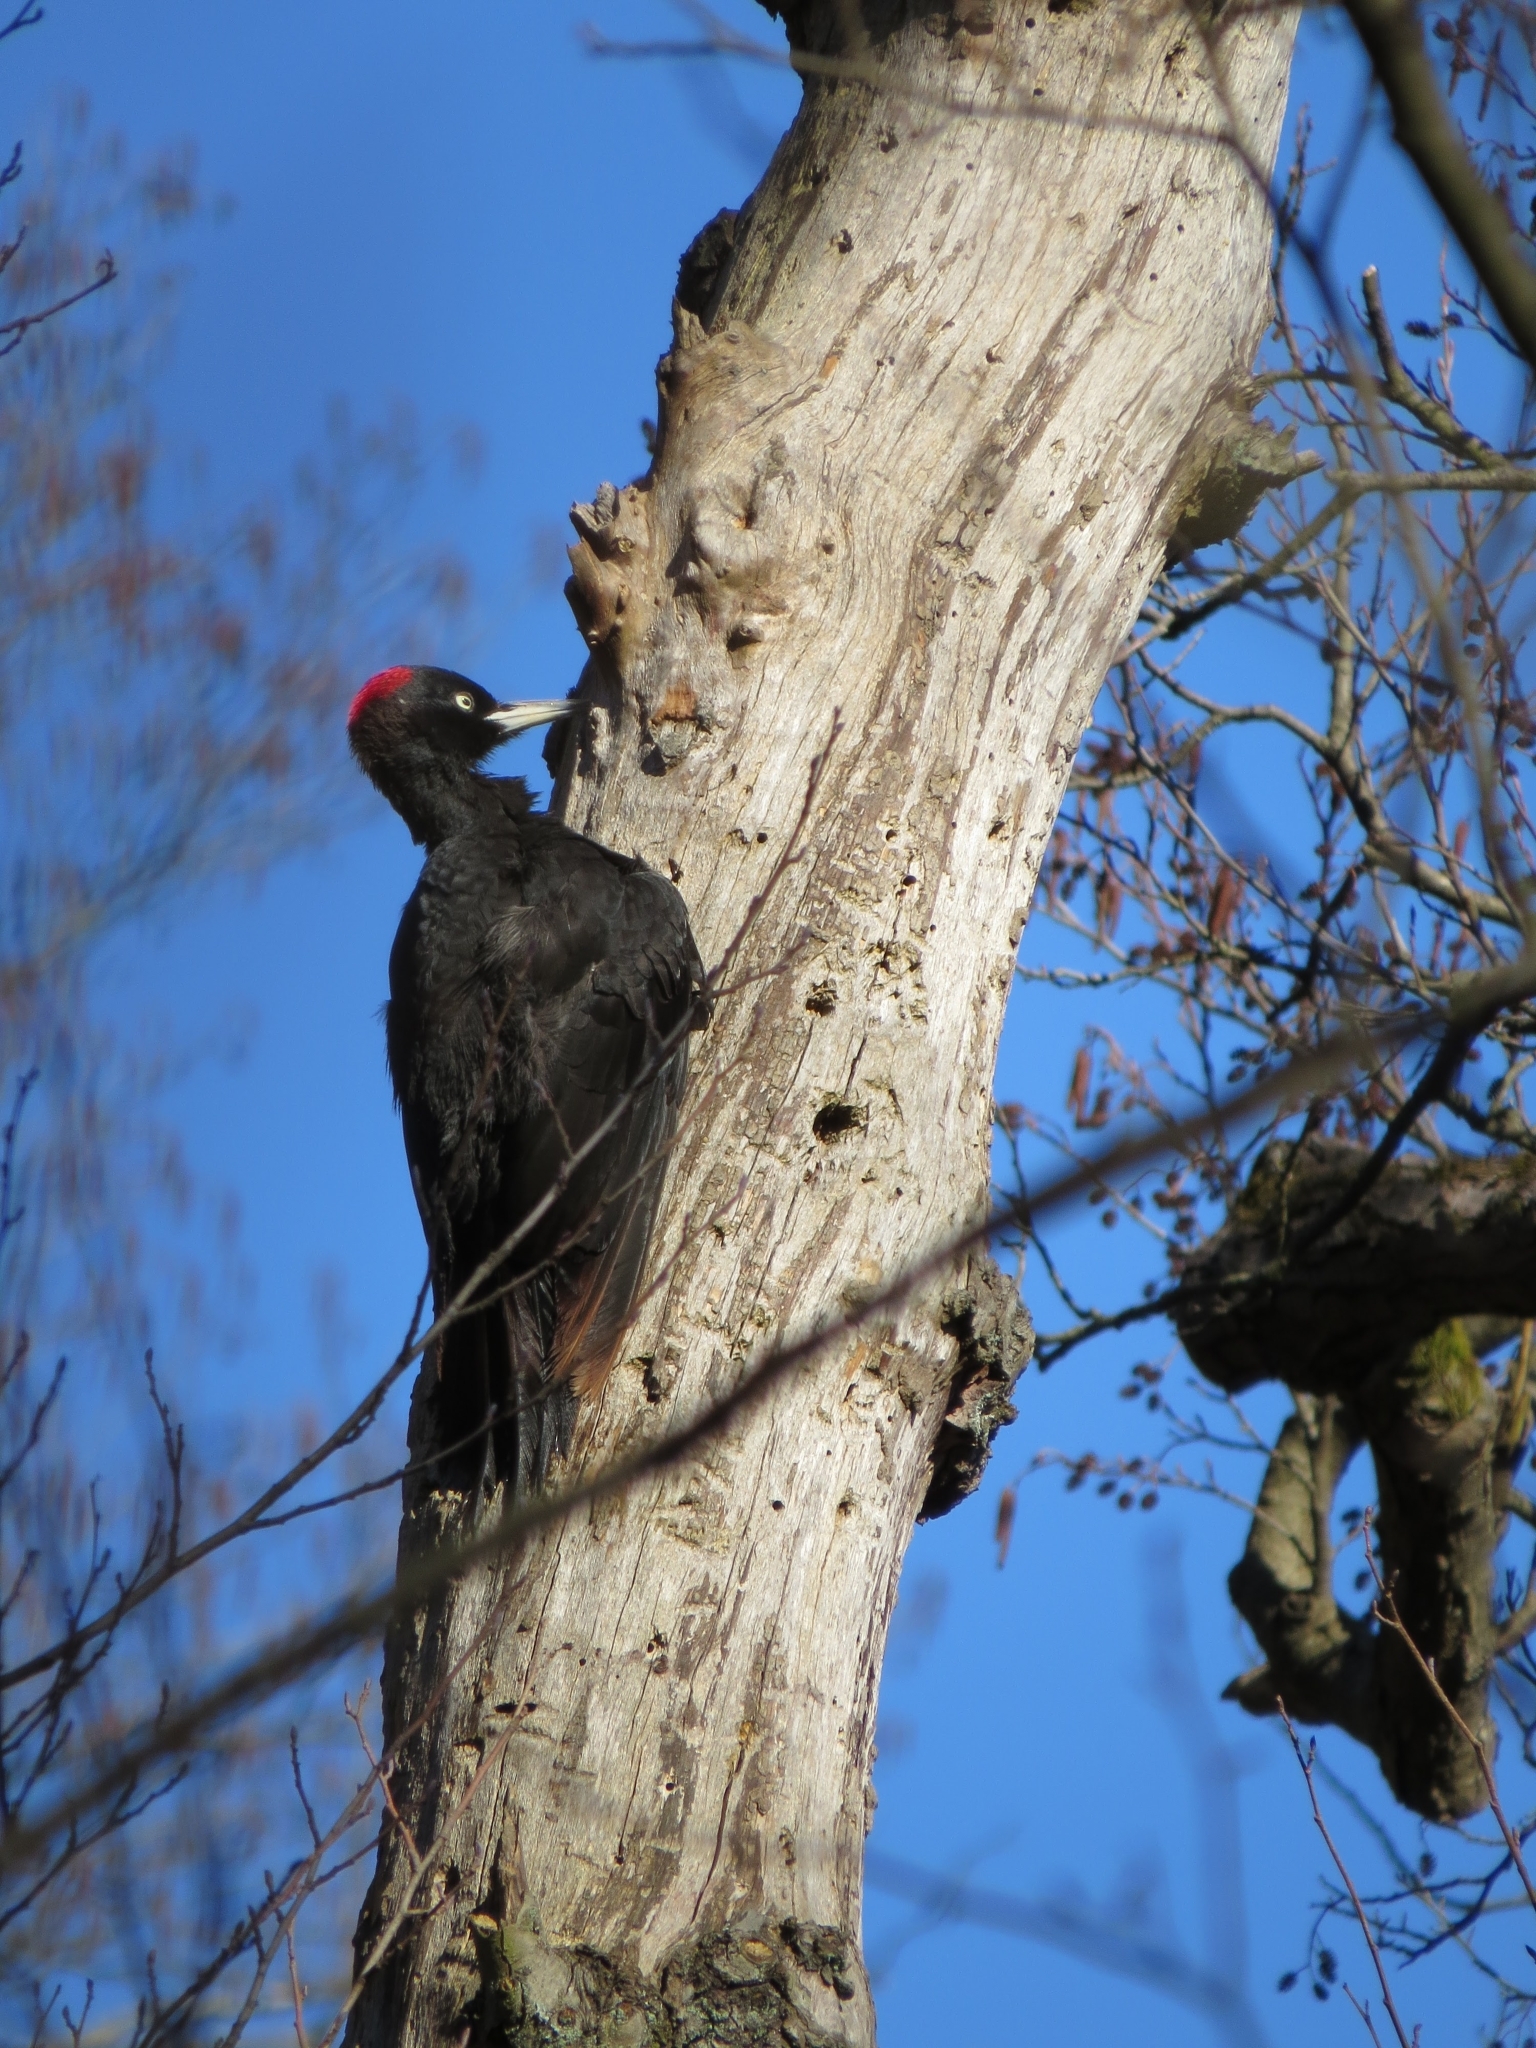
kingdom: Animalia
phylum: Chordata
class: Aves
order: Piciformes
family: Picidae
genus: Dryocopus
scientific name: Dryocopus martius
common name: Black woodpecker
